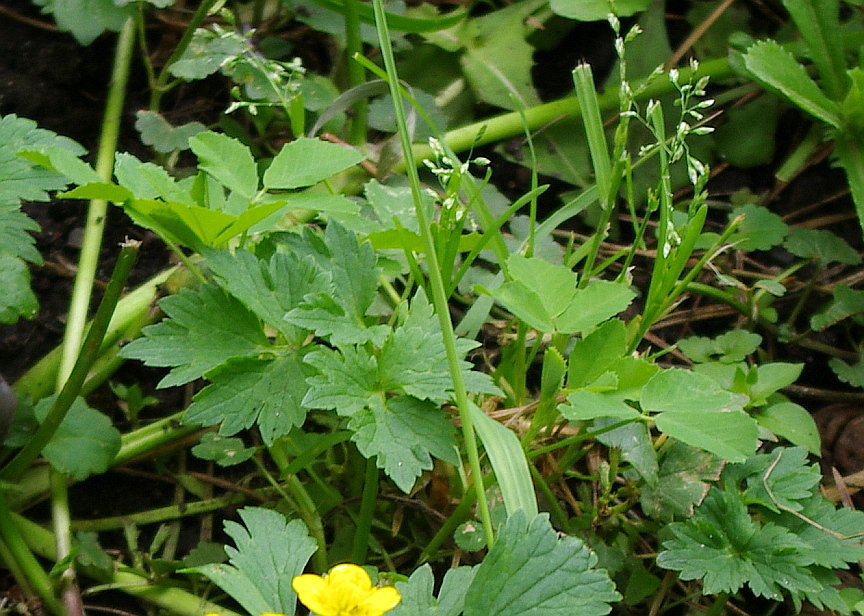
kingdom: Plantae
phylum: Tracheophyta
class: Liliopsida
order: Poales
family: Poaceae
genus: Poa
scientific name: Poa annua
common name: Annual bluegrass
